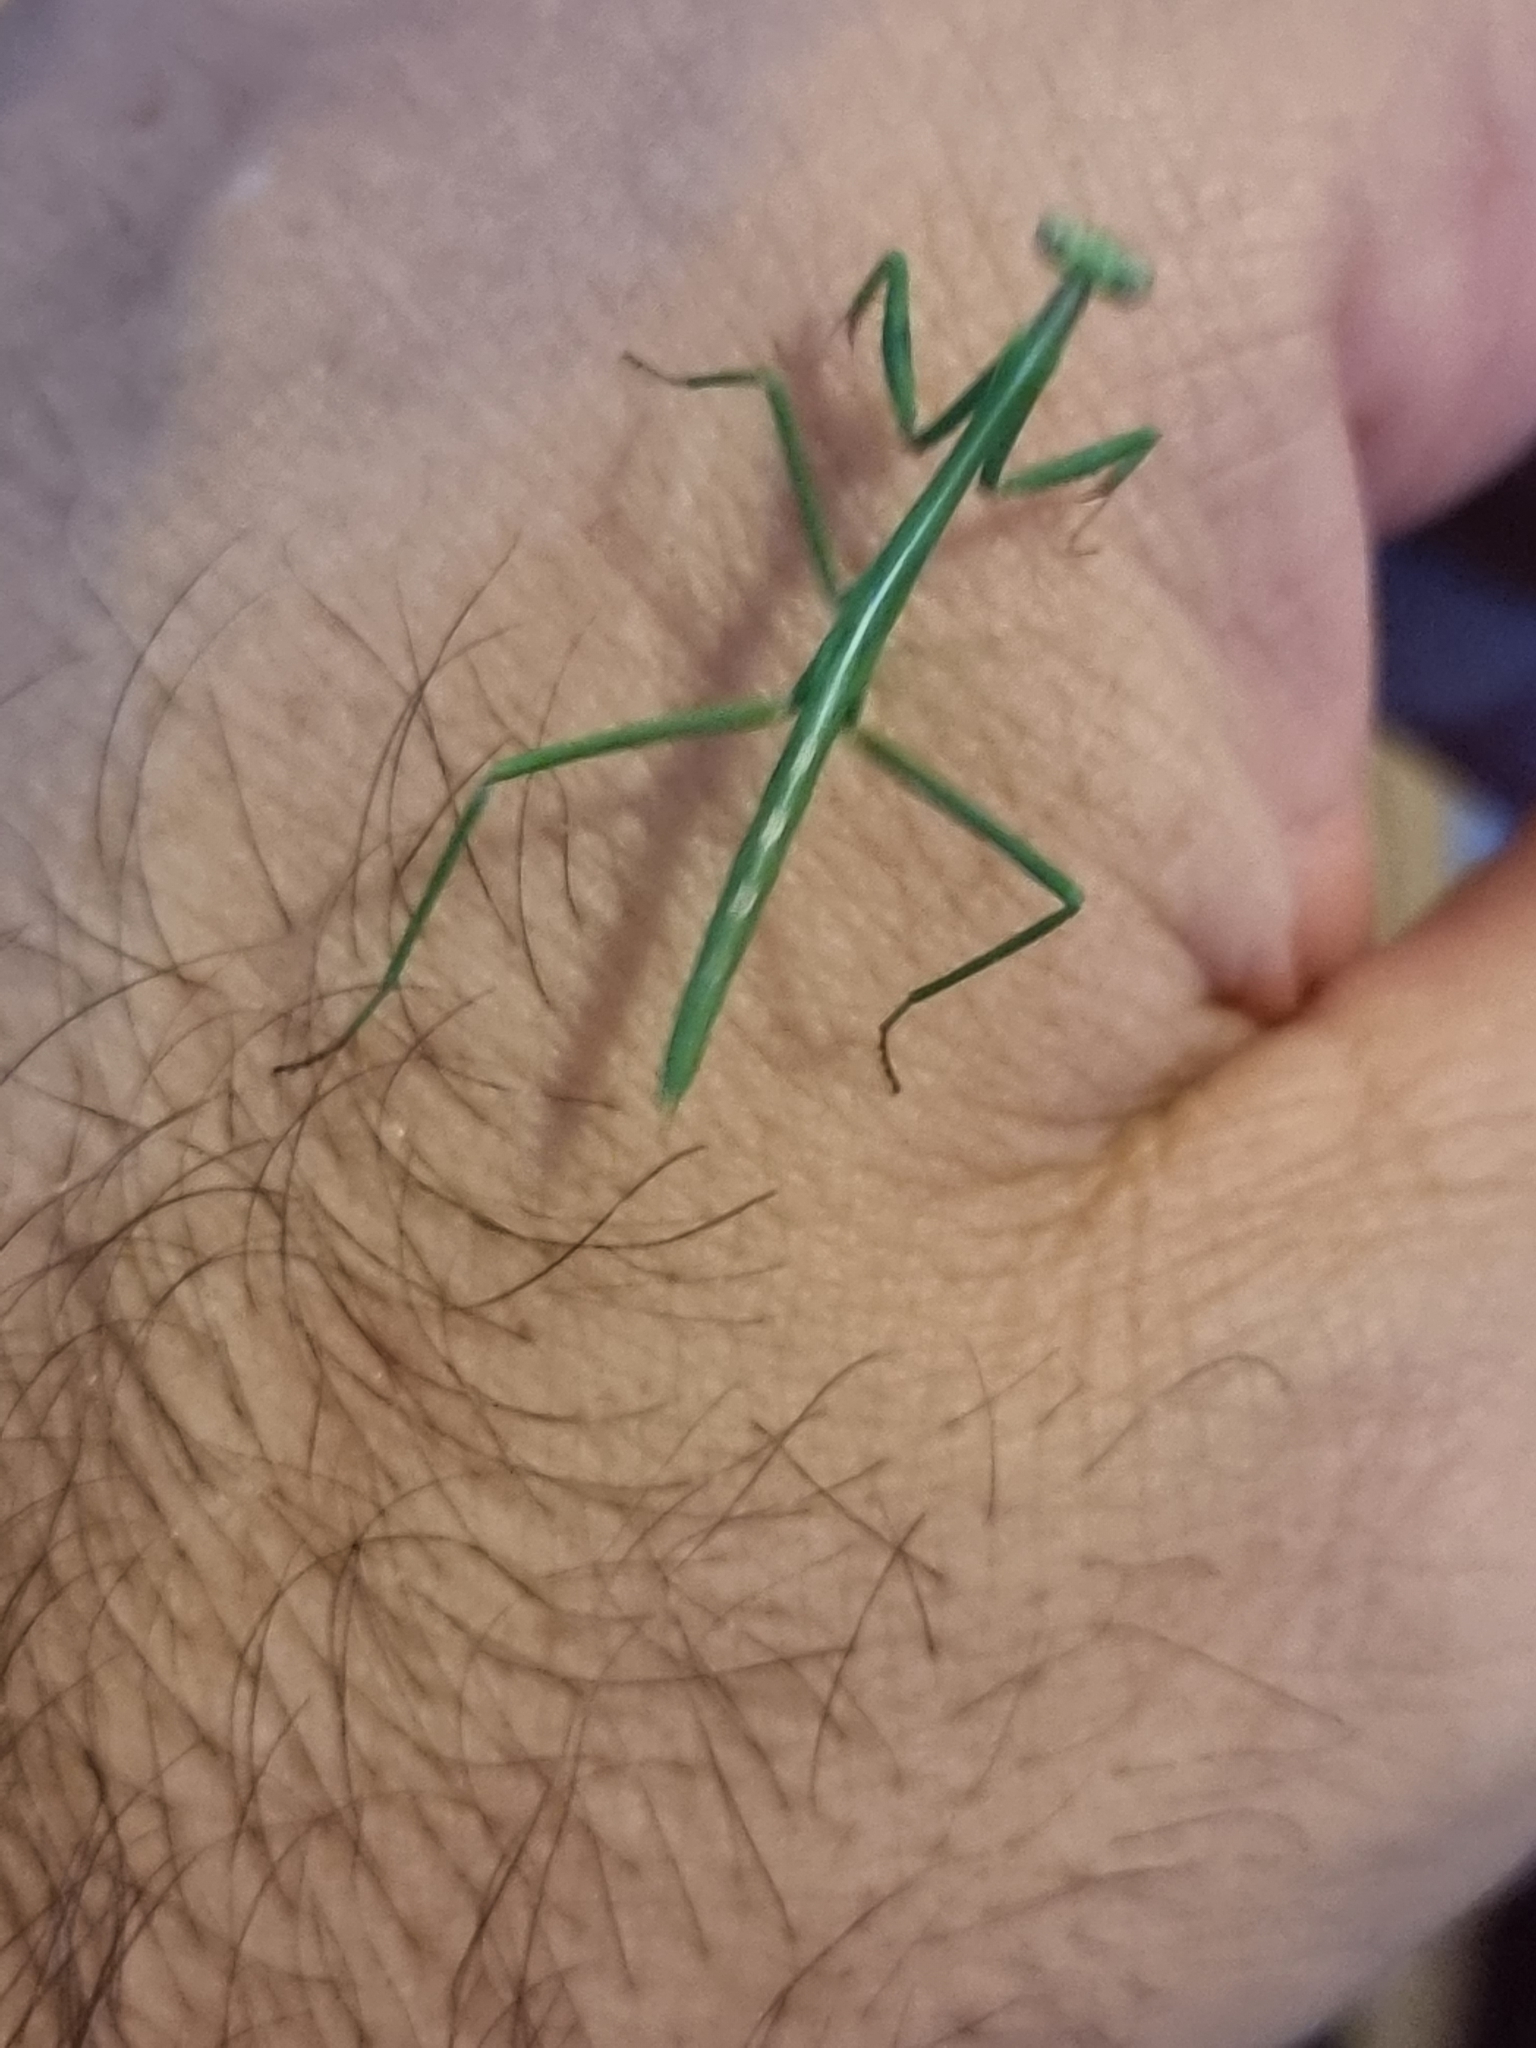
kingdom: Animalia
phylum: Arthropoda
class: Insecta
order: Mantodea
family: Mantidae
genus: Archimantis
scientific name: Archimantis latistyla
